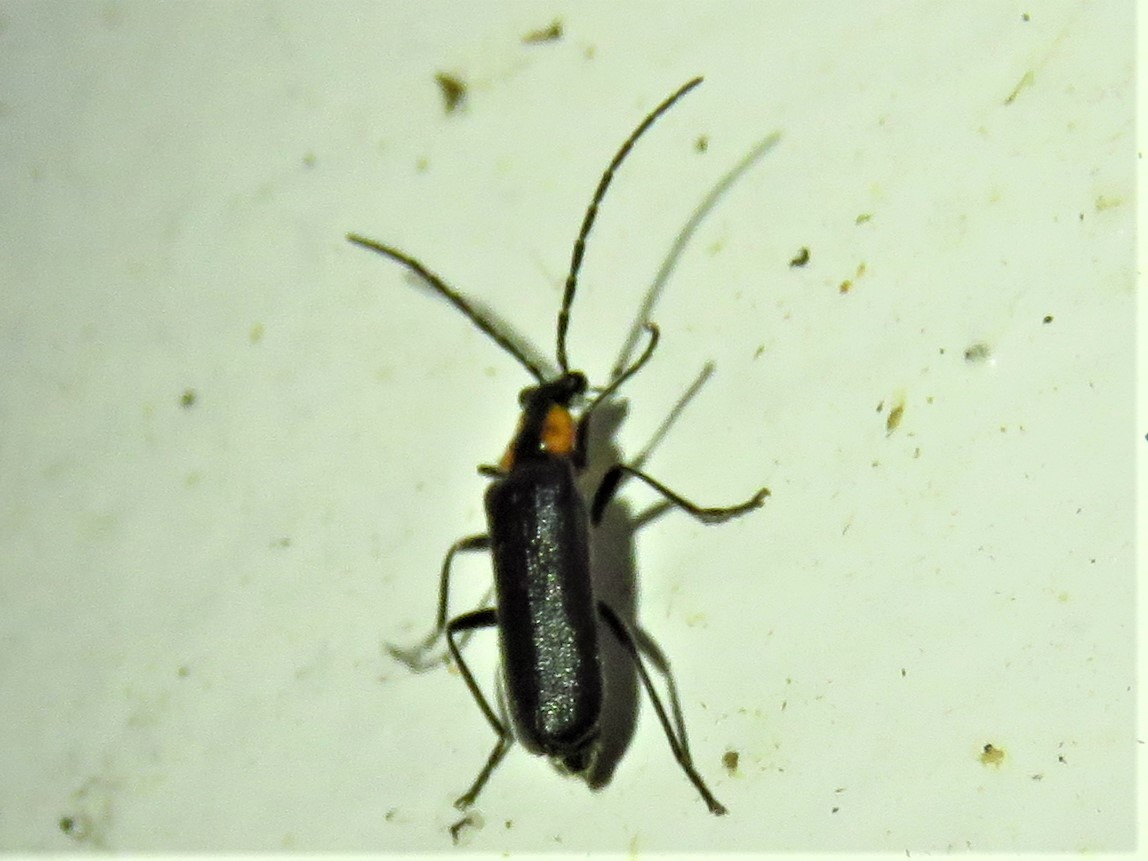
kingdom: Animalia
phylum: Arthropoda
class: Insecta
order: Coleoptera
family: Cantharidae
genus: Rhagonycha
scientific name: Rhagonycha lineola
